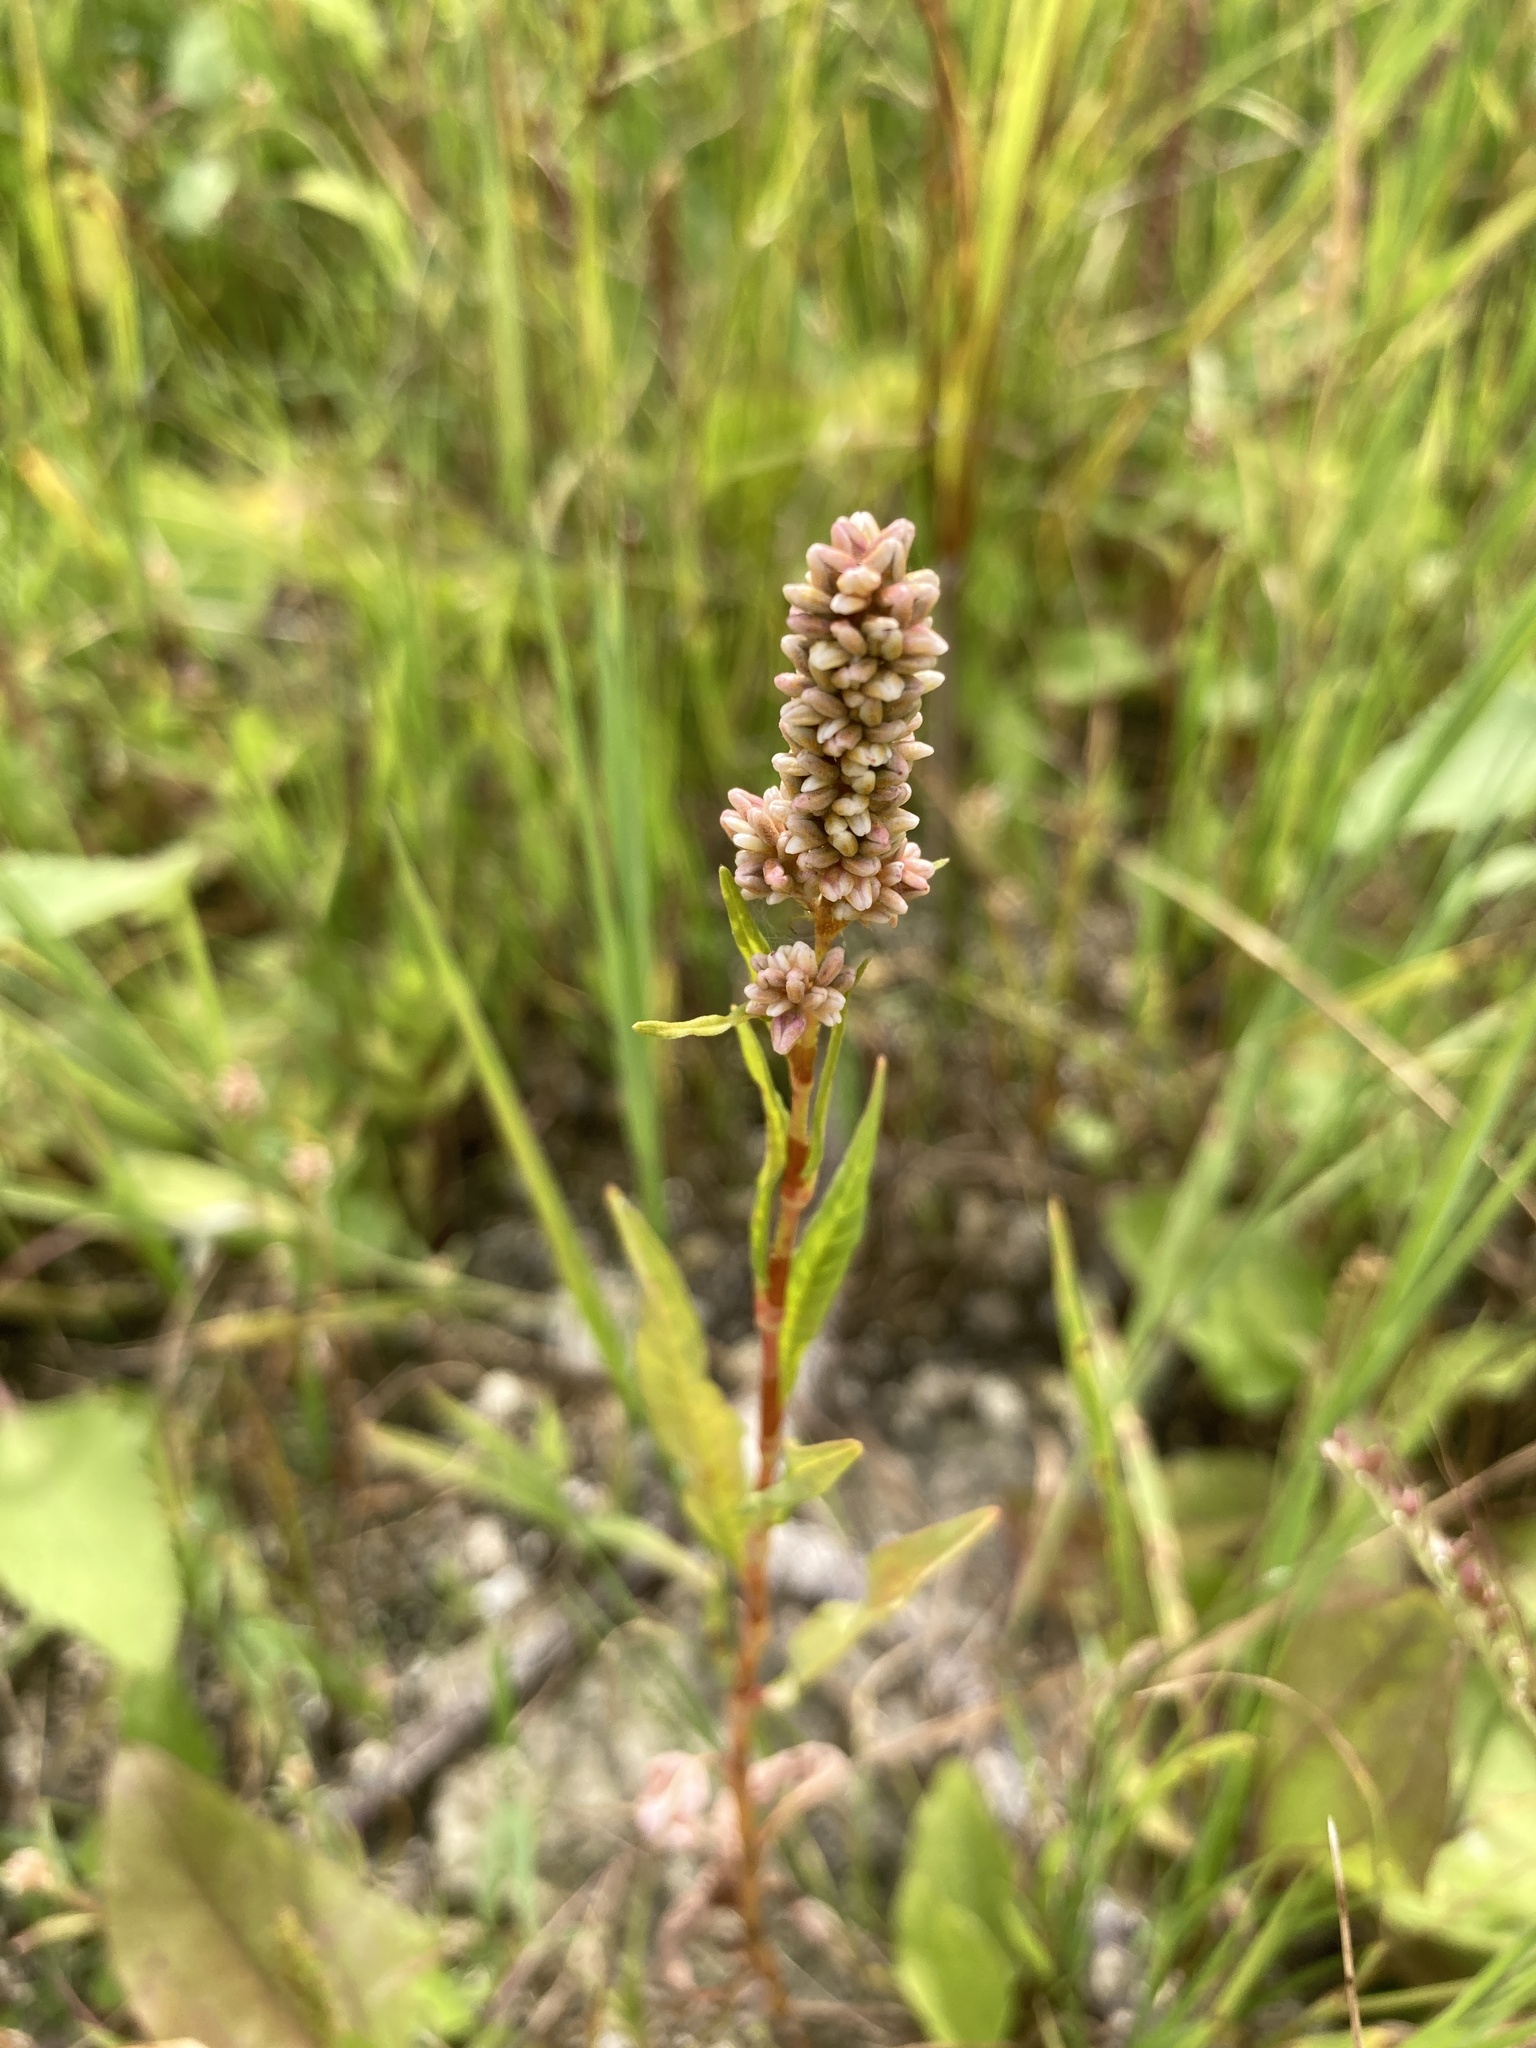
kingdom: Plantae
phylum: Tracheophyta
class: Magnoliopsida
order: Caryophyllales
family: Polygonaceae
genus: Persicaria
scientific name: Persicaria maculosa
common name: Redshank
